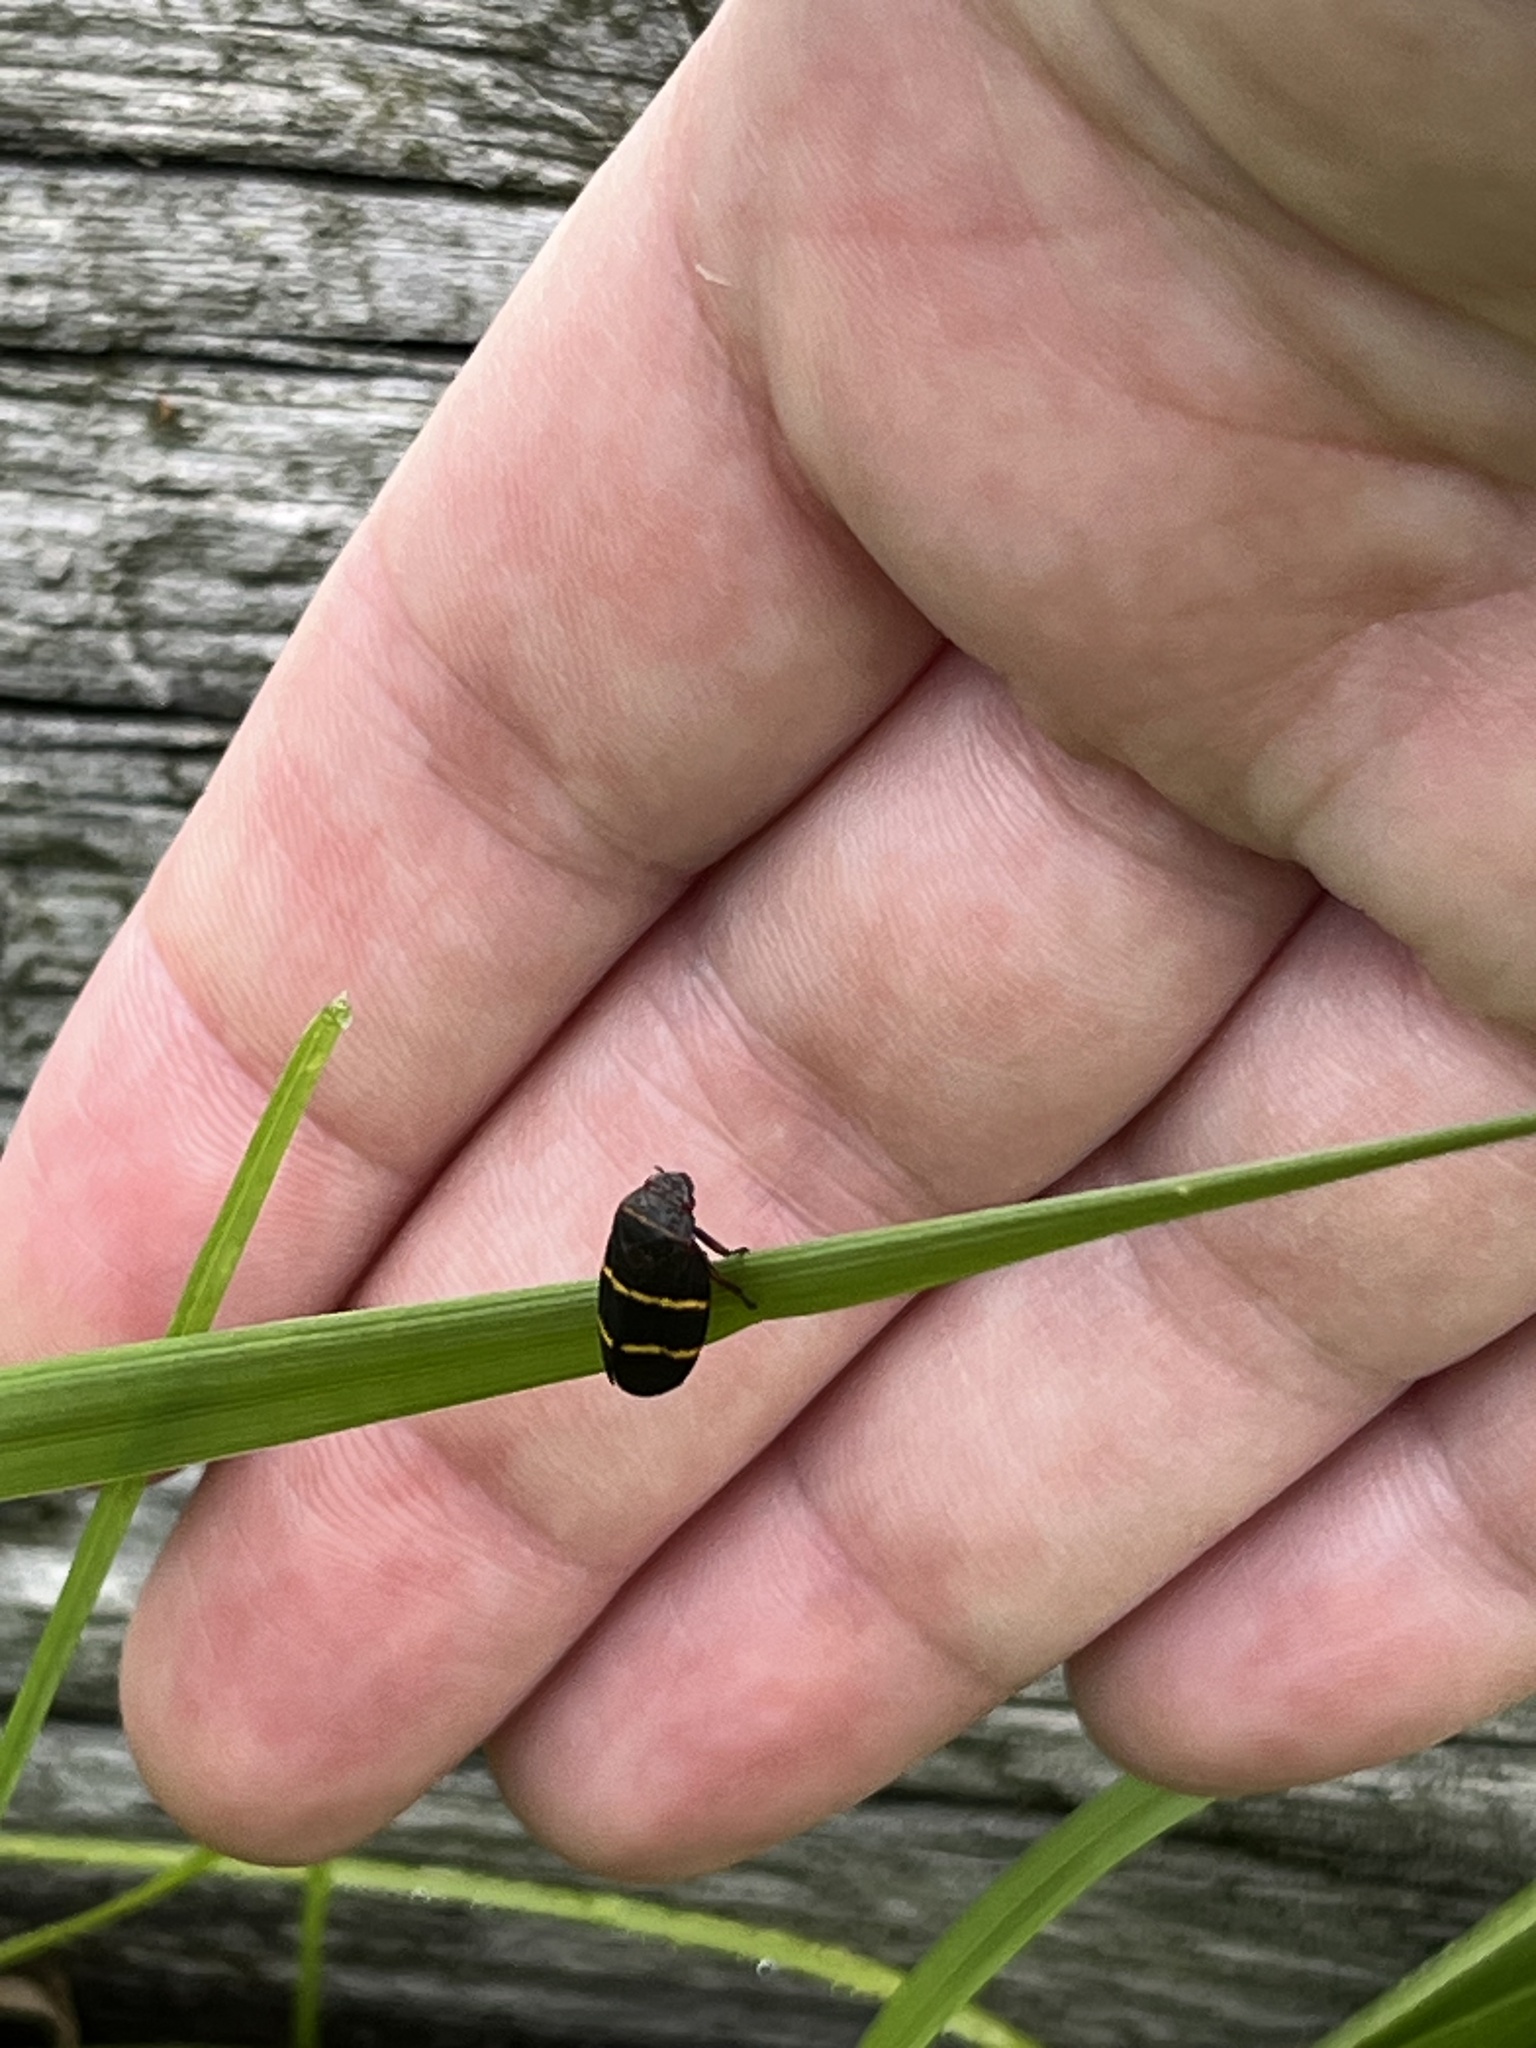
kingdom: Animalia
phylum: Arthropoda
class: Insecta
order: Hemiptera
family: Cercopidae
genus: Prosapia
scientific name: Prosapia bicincta
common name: Twolined spittlebug
